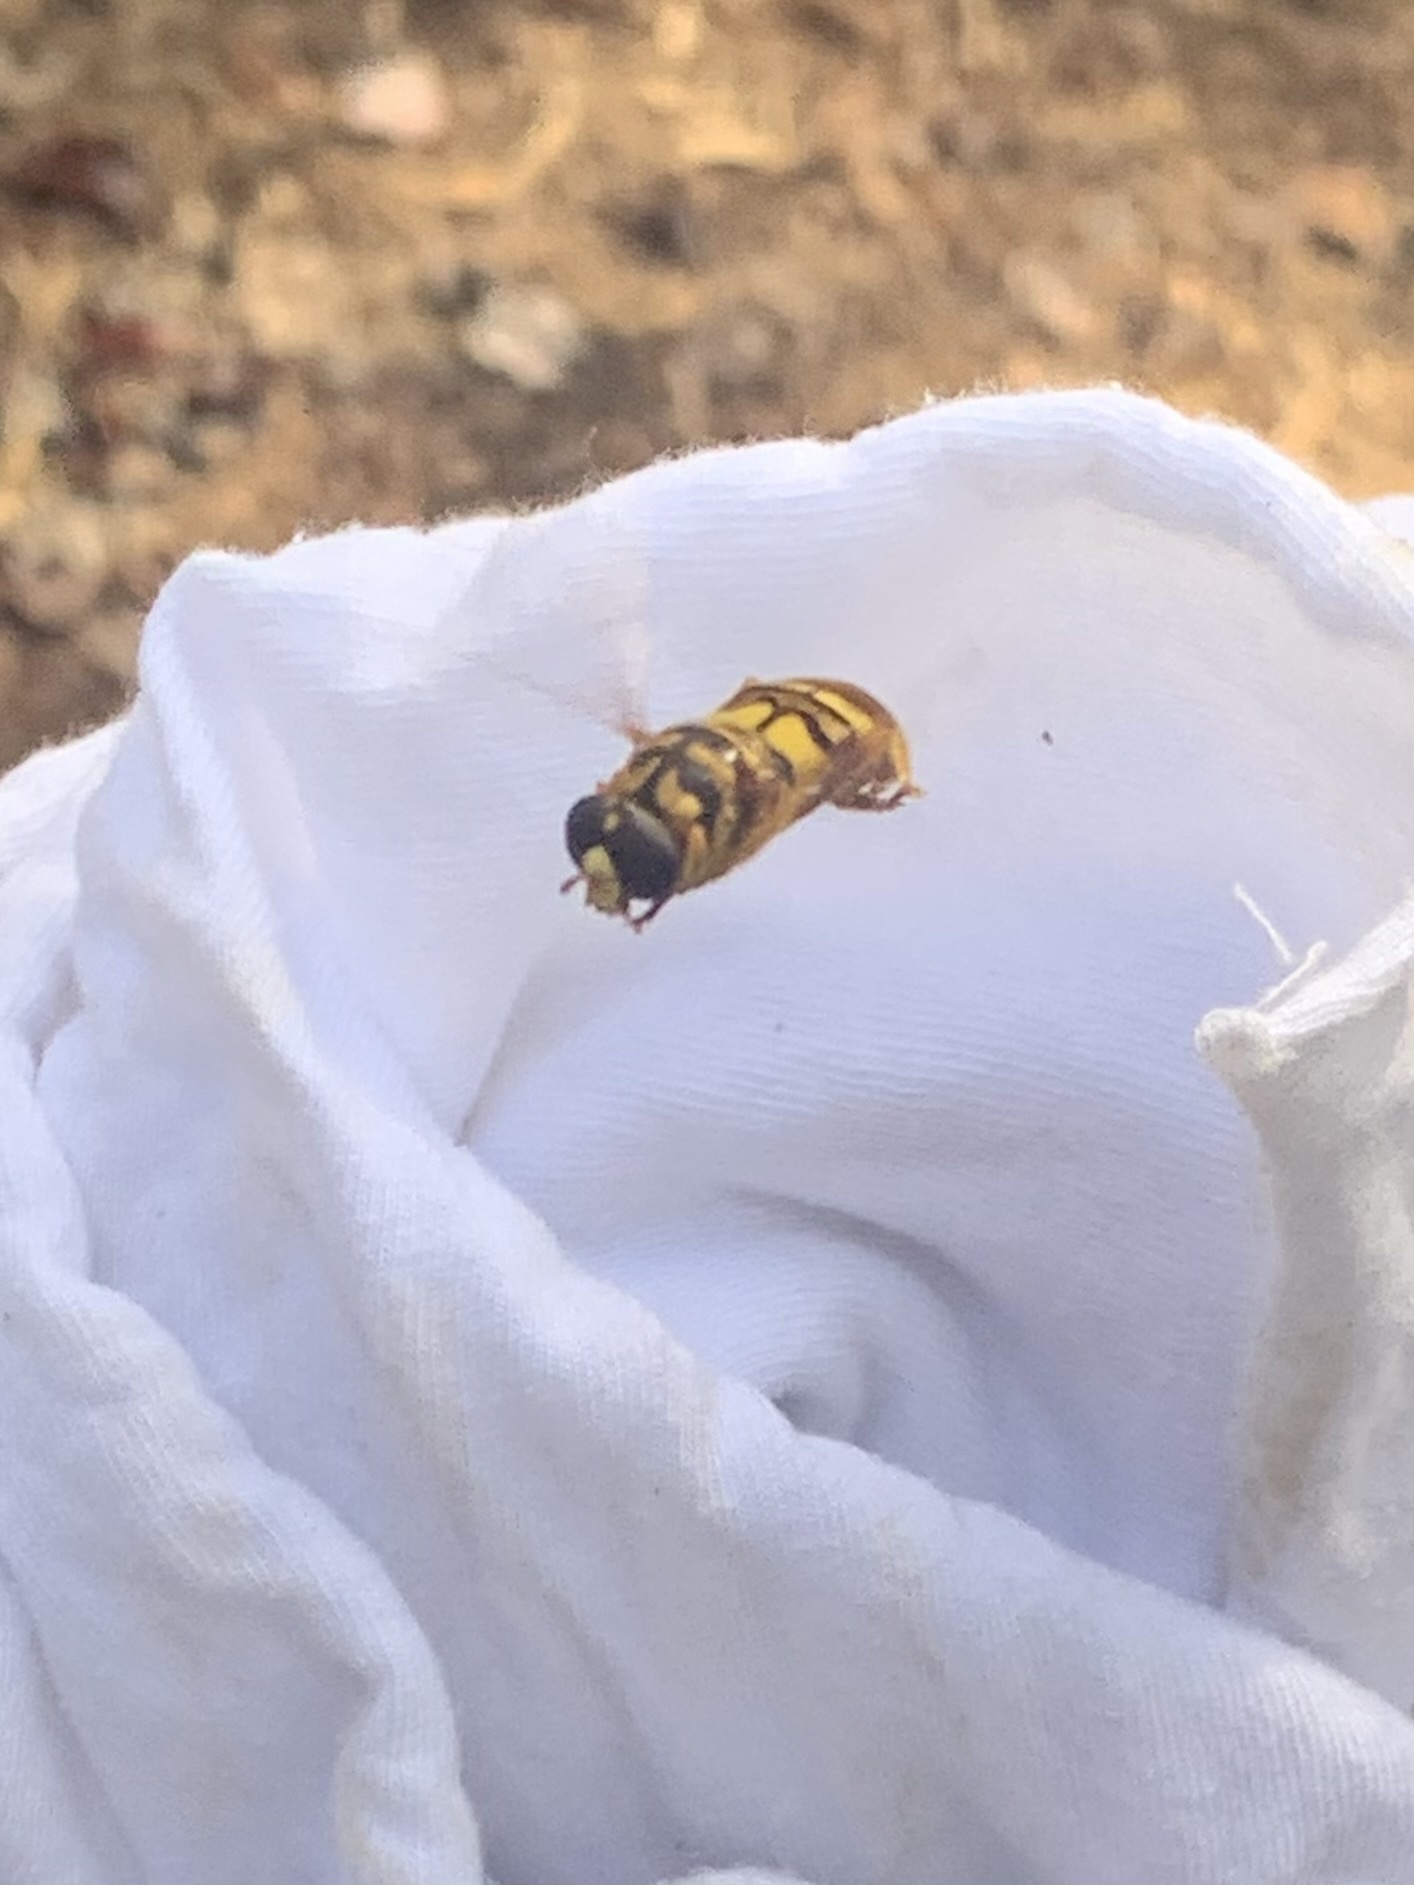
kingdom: Animalia
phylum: Arthropoda
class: Insecta
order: Diptera
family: Syrphidae
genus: Milesia
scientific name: Milesia virginiensis
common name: Virginia giant
